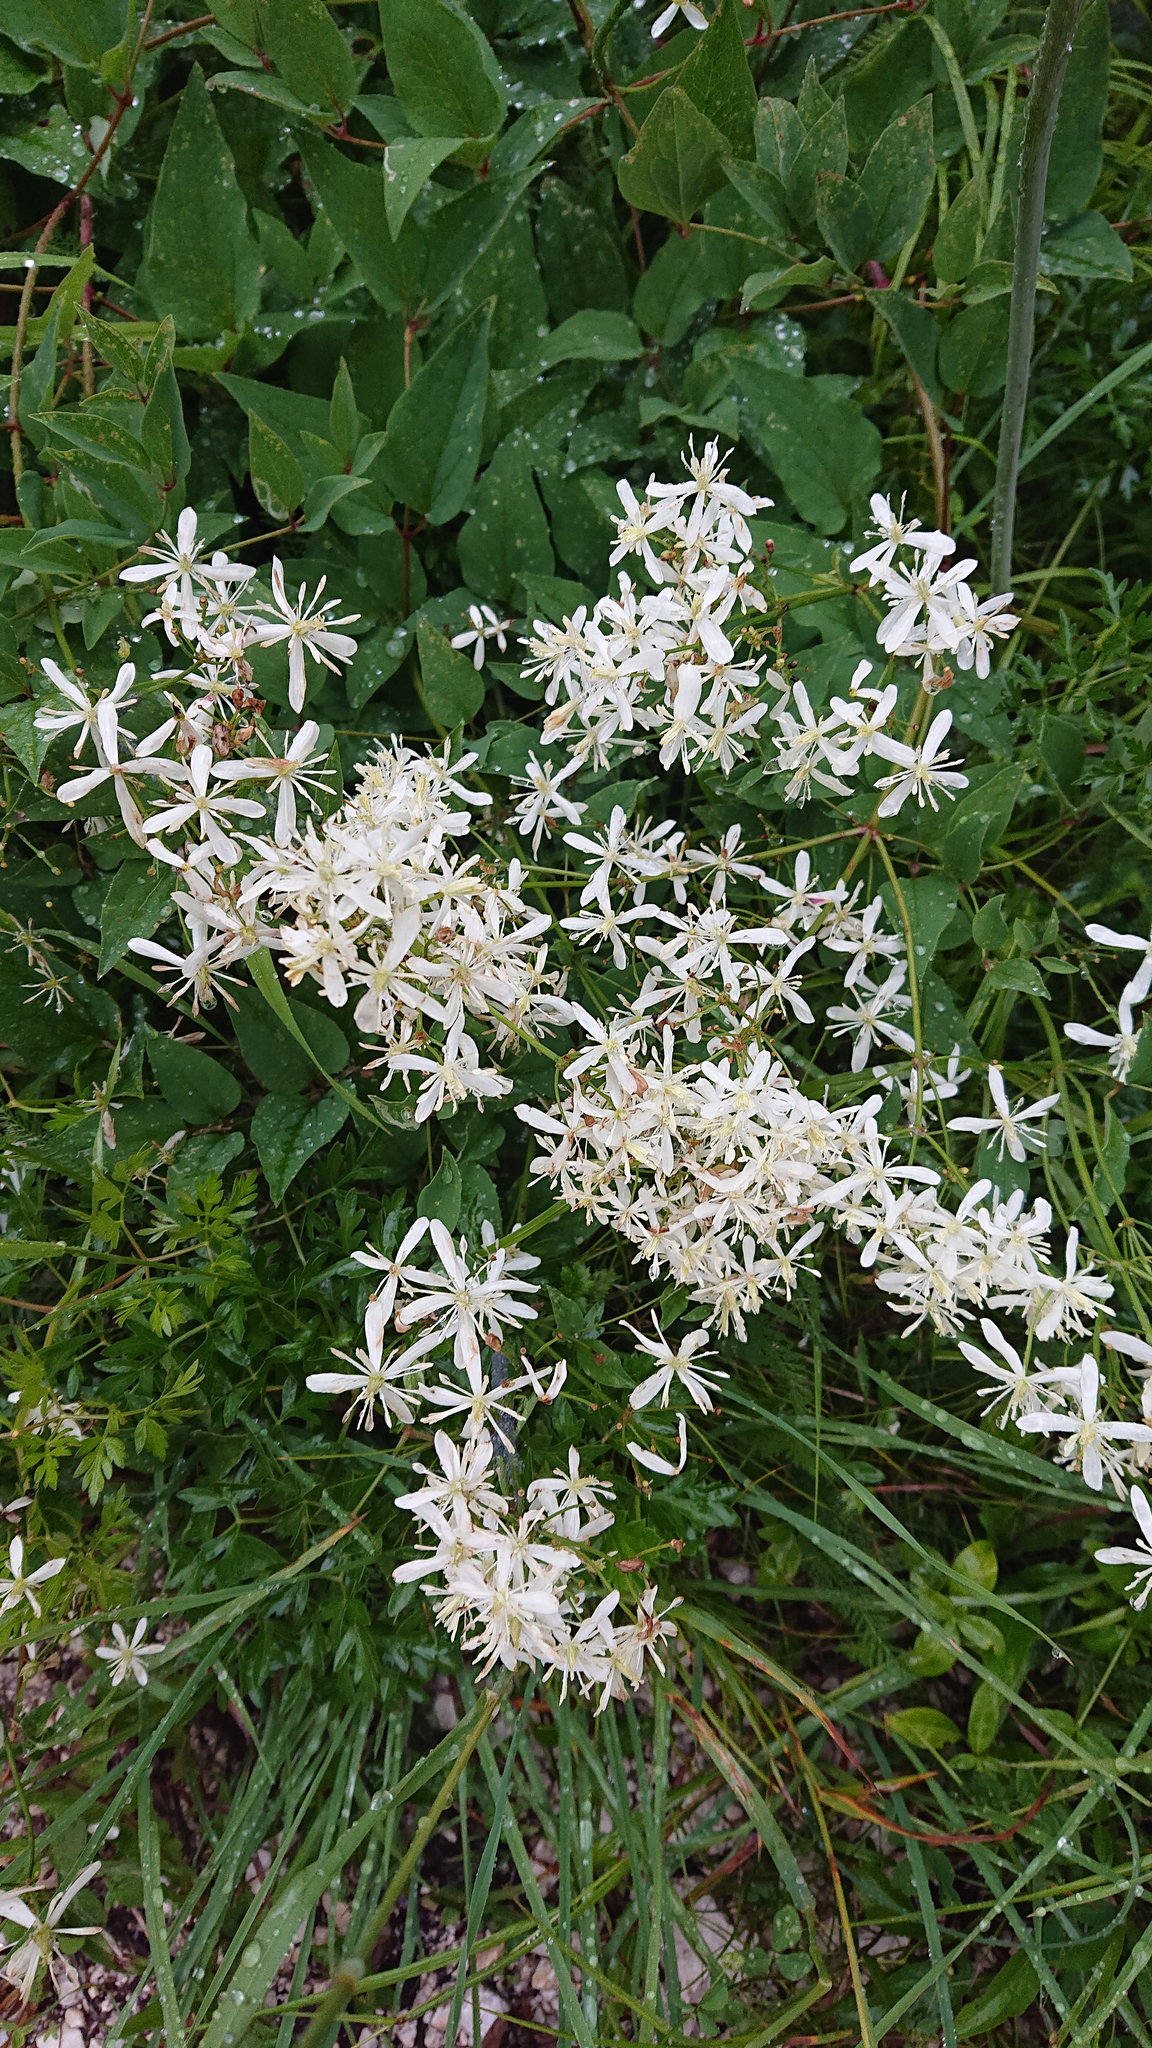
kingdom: Plantae
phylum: Tracheophyta
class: Magnoliopsida
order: Ranunculales
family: Ranunculaceae
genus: Clematis
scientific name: Clematis recta
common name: Ground clematis
